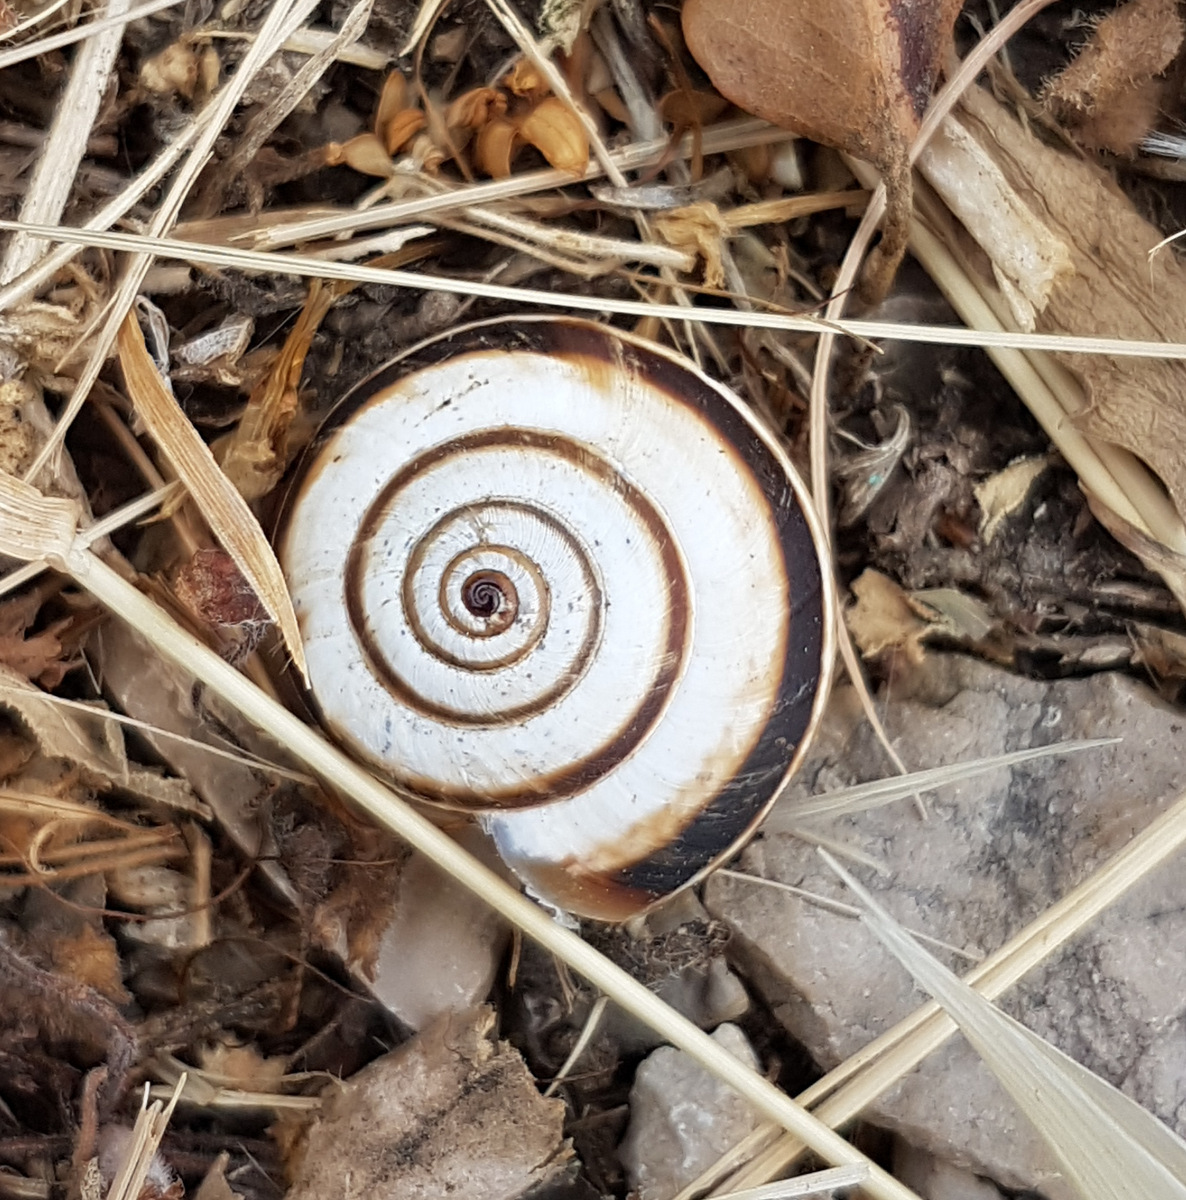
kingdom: Animalia
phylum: Mollusca
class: Gastropoda
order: Stylommatophora
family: Geomitridae
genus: Xerosecta
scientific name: Xerosecta cespitum
